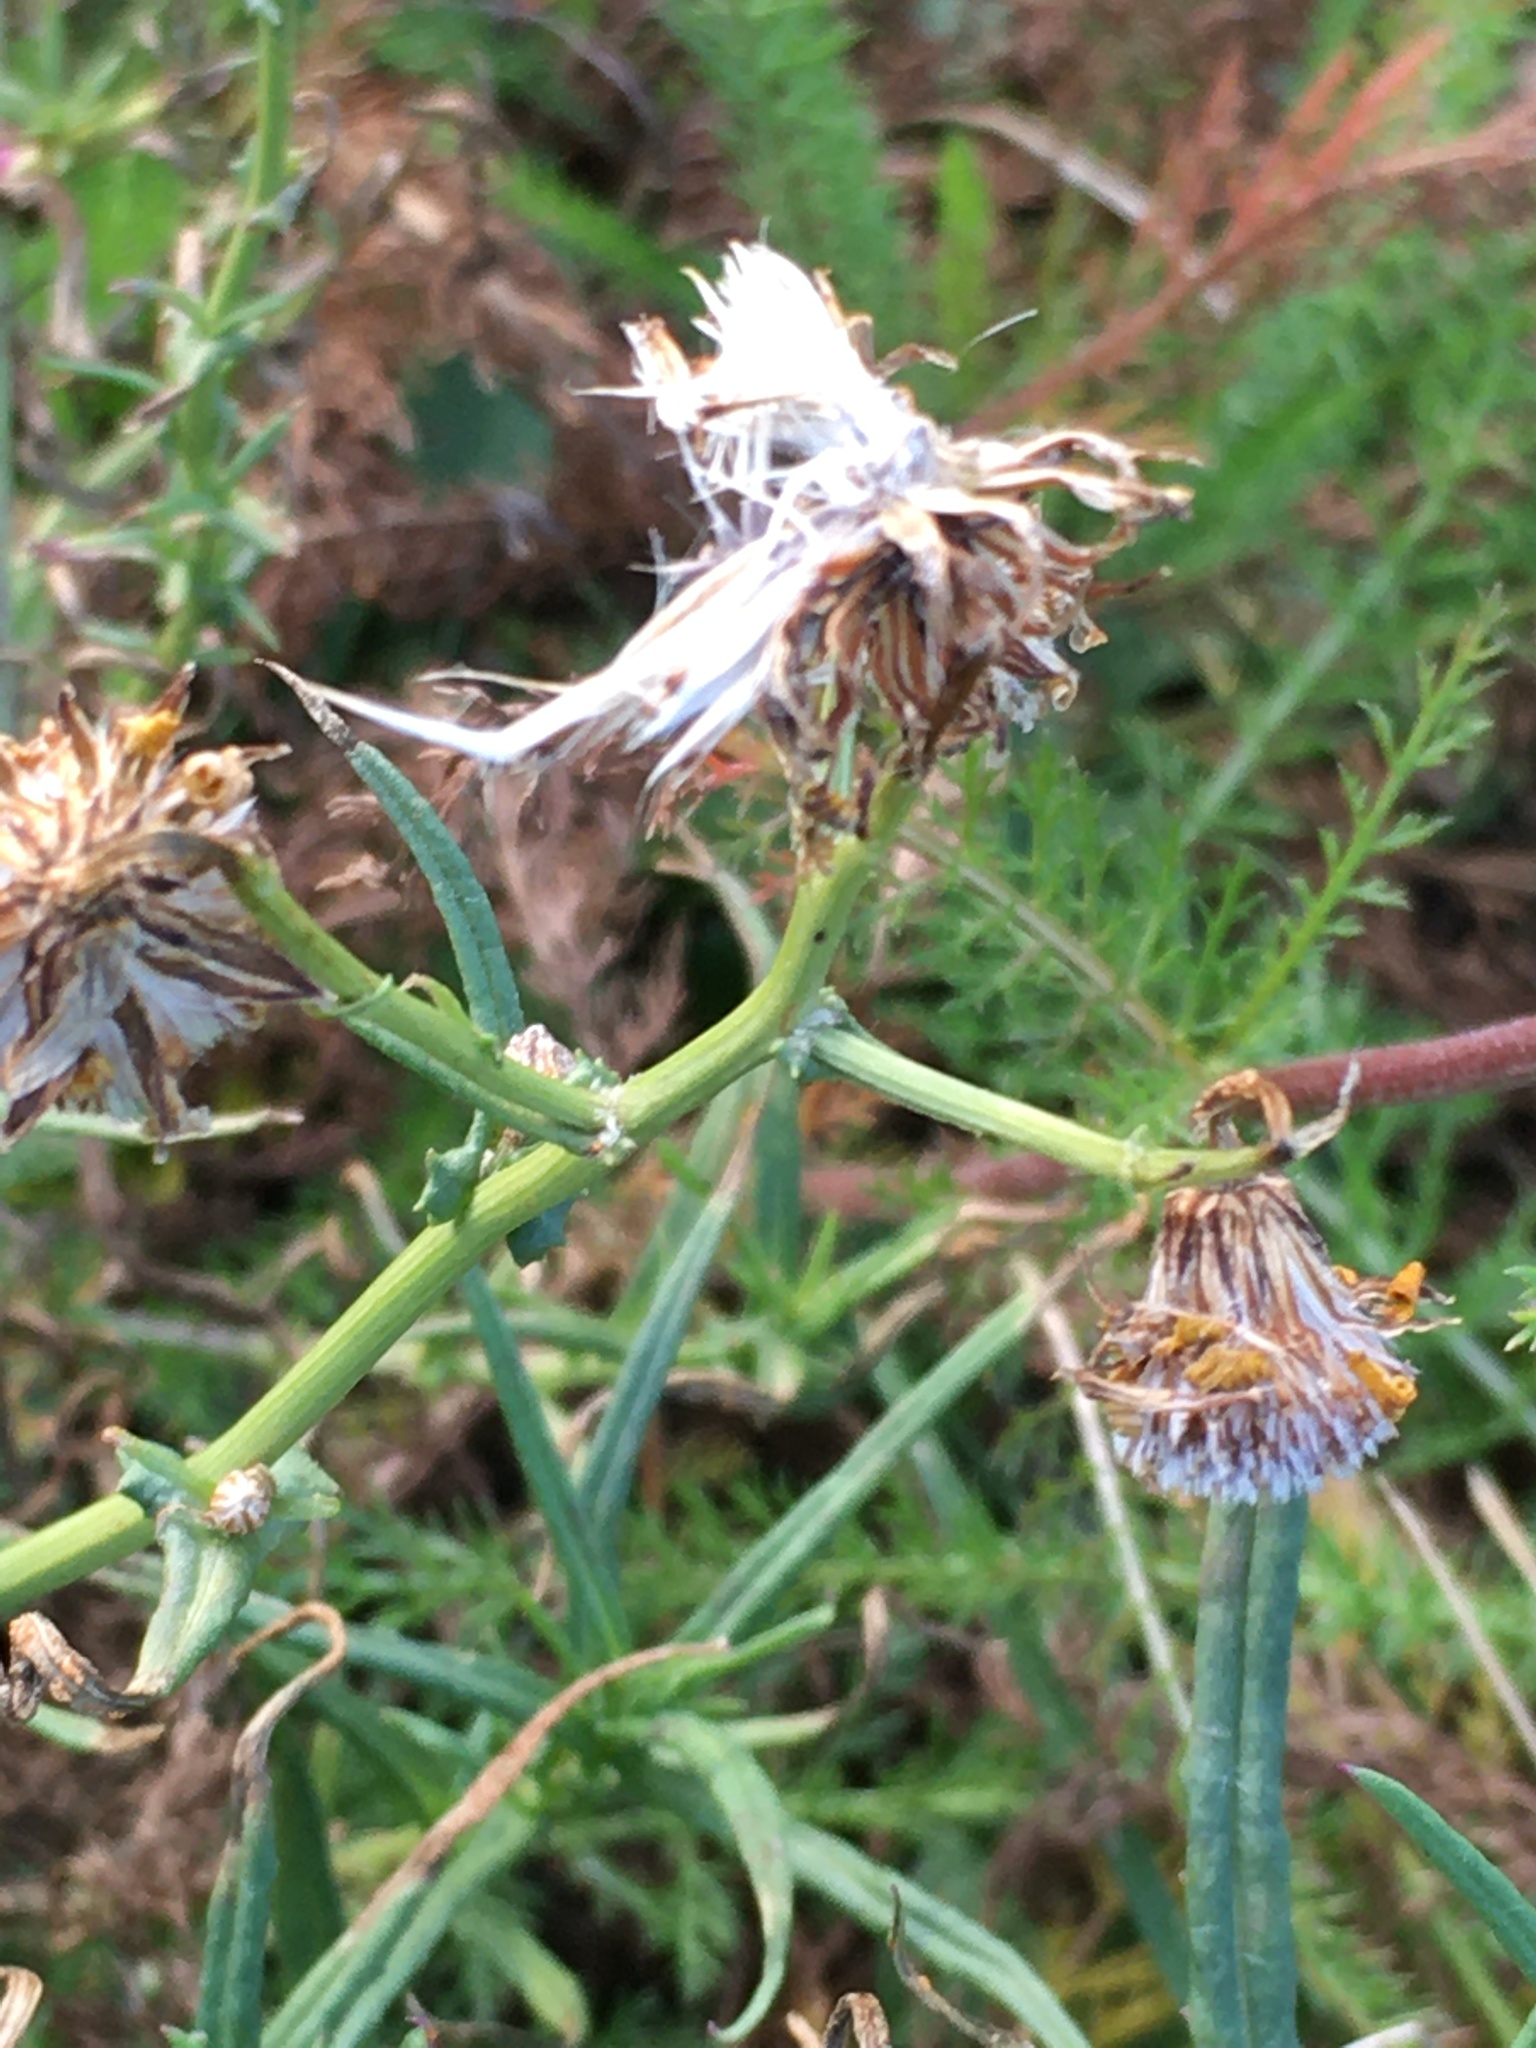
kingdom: Plantae
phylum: Tracheophyta
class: Magnoliopsida
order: Asterales
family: Asteraceae
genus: Senecio
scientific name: Senecio inaequidens
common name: Narrow-leaved ragwort
